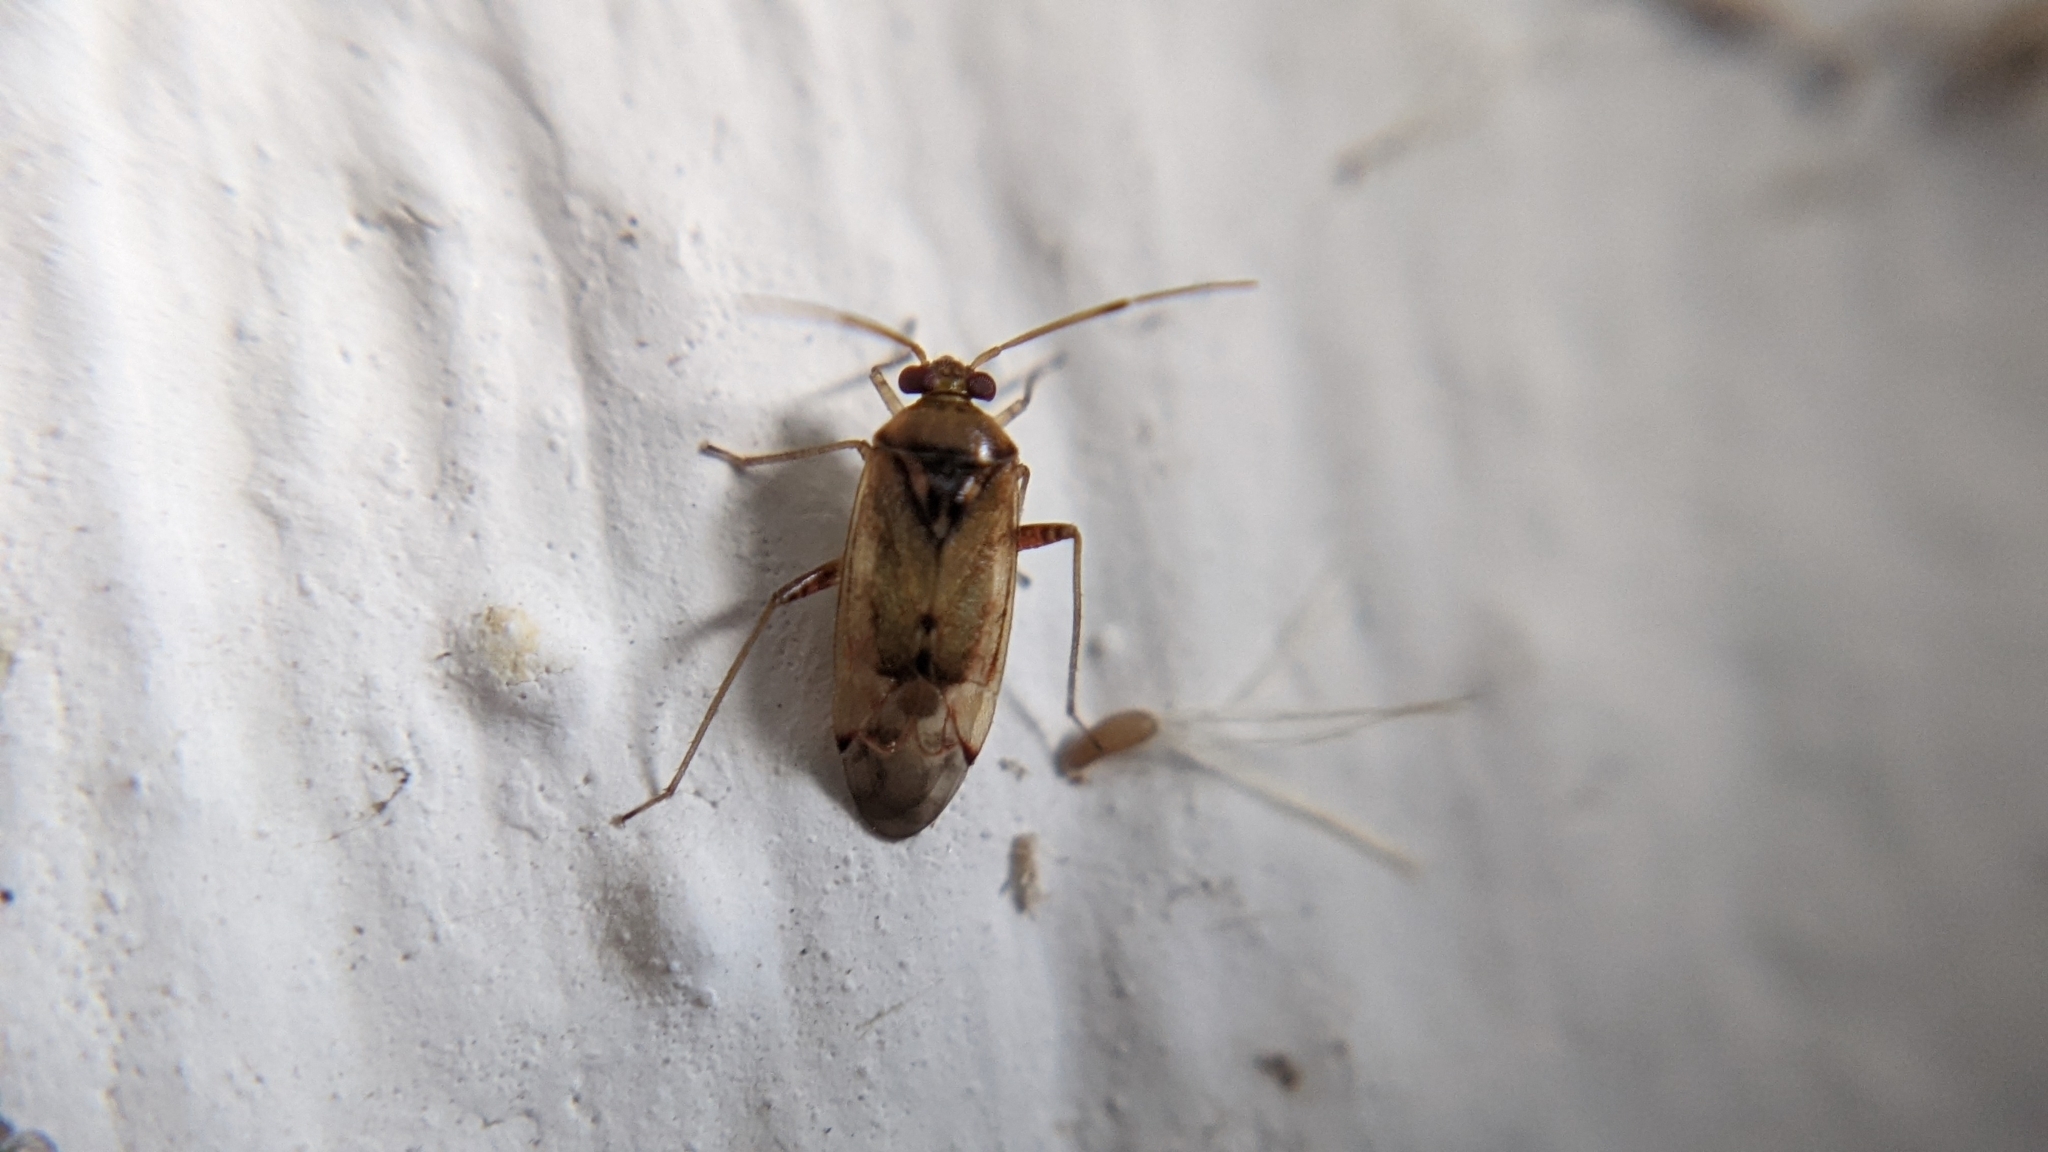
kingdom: Animalia
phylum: Arthropoda
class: Insecta
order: Hemiptera
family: Miridae
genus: Pinalitus
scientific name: Pinalitus cervinus
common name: Plant bug
